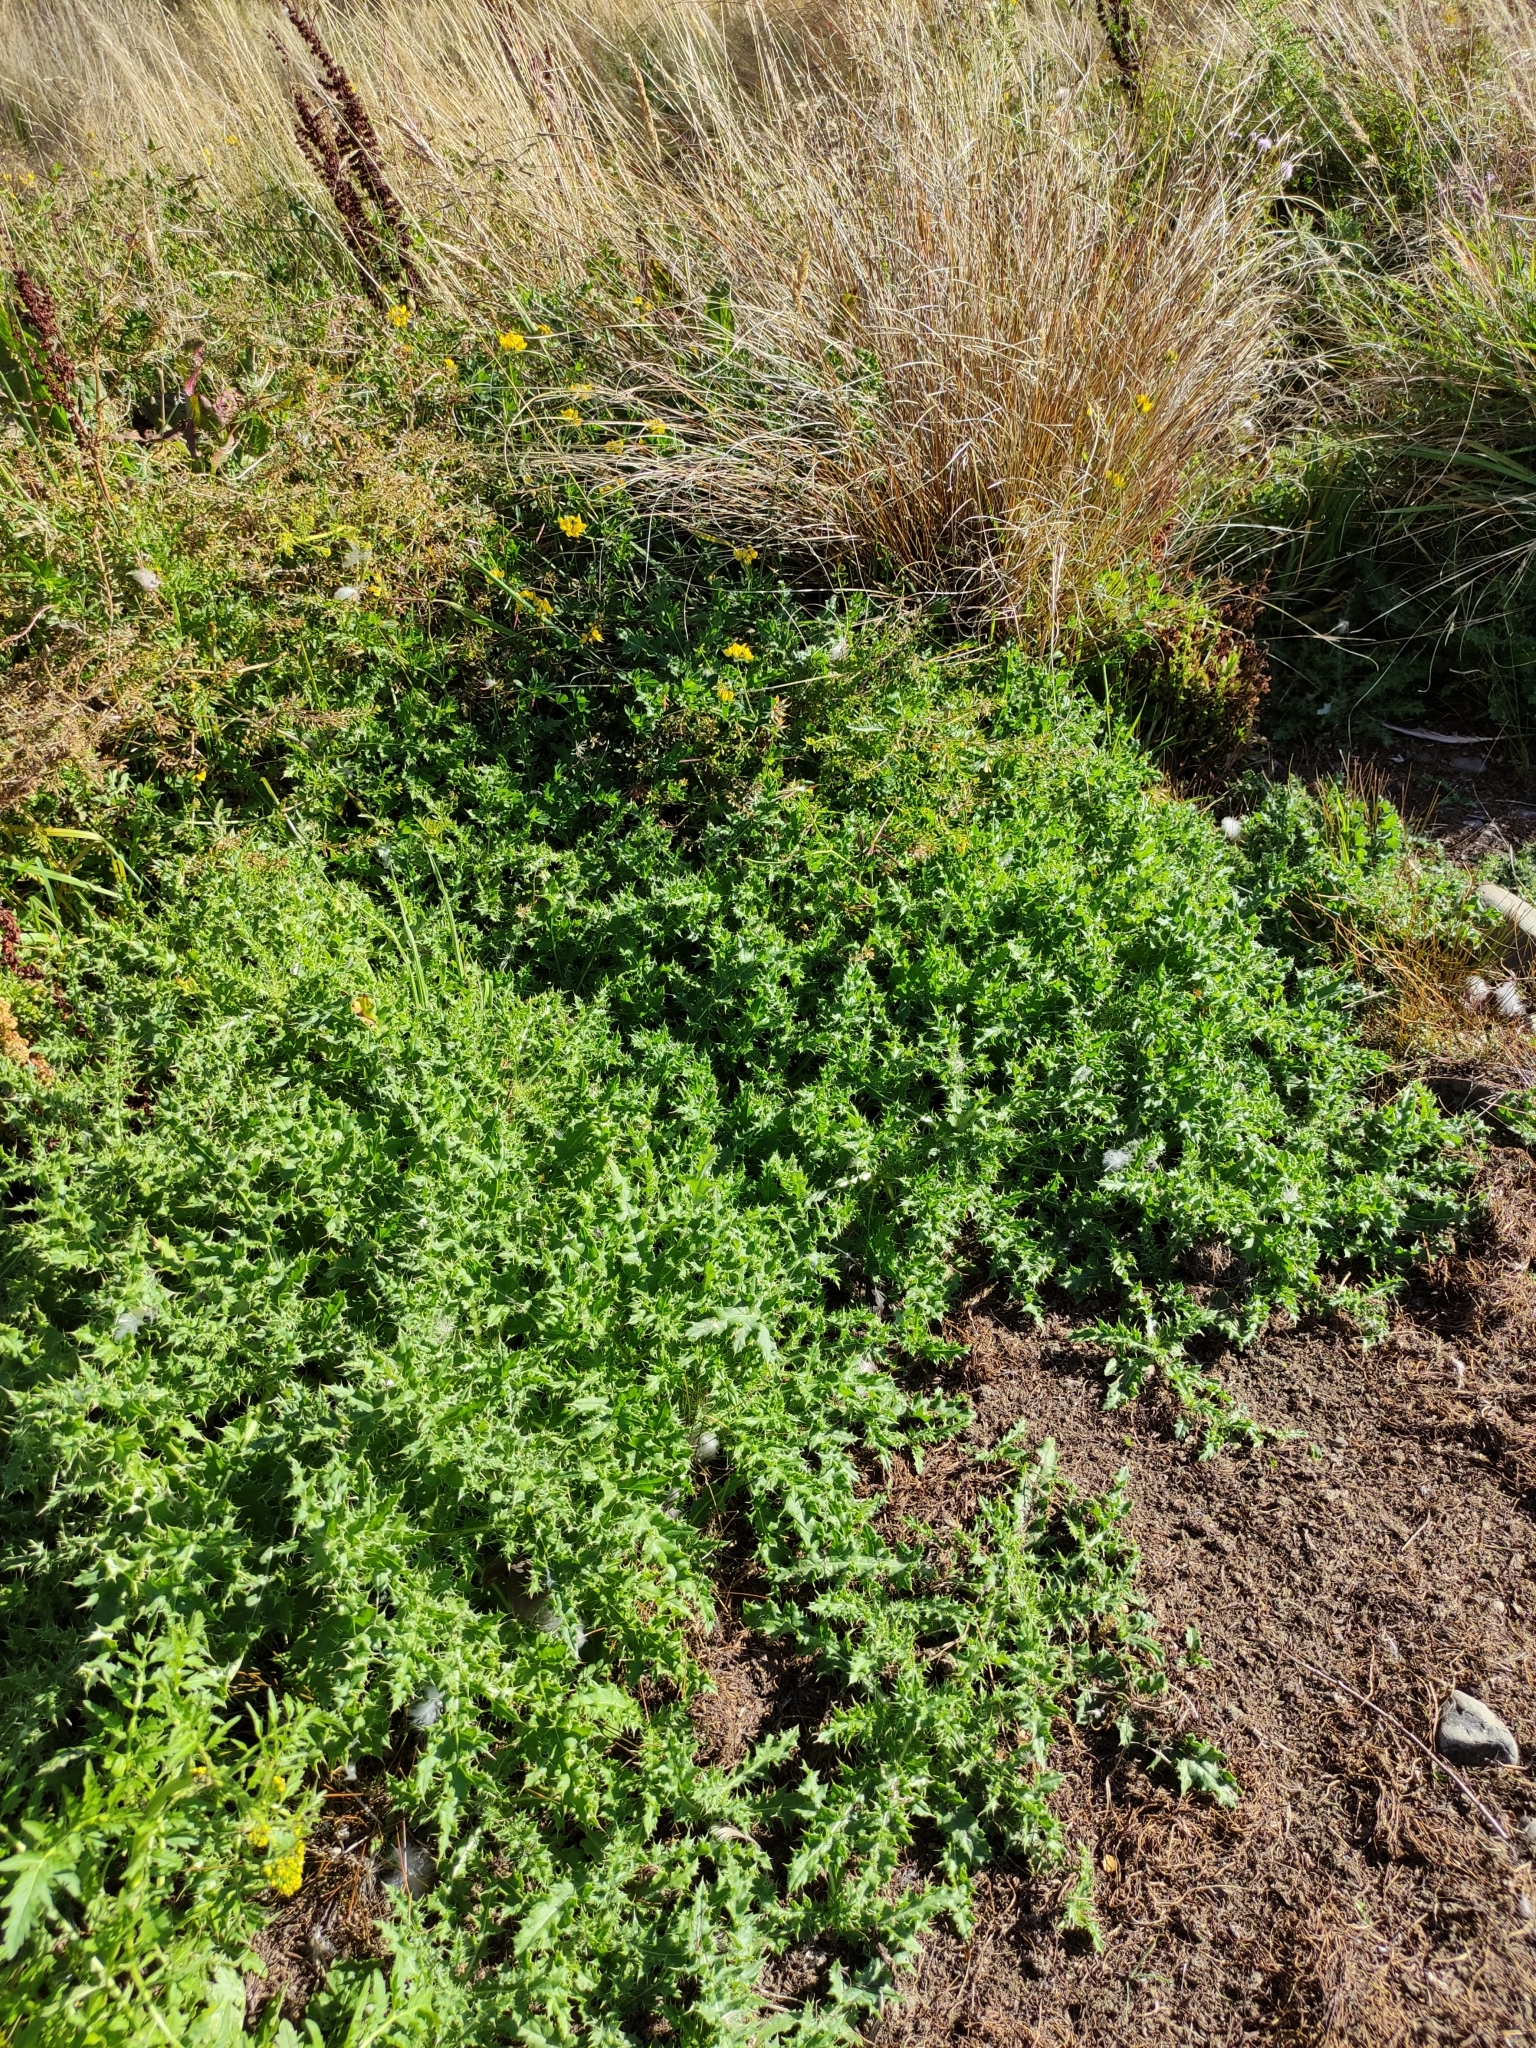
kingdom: Plantae
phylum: Tracheophyta
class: Magnoliopsida
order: Asterales
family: Asteraceae
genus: Cirsium
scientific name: Cirsium arvense
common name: Creeping thistle
